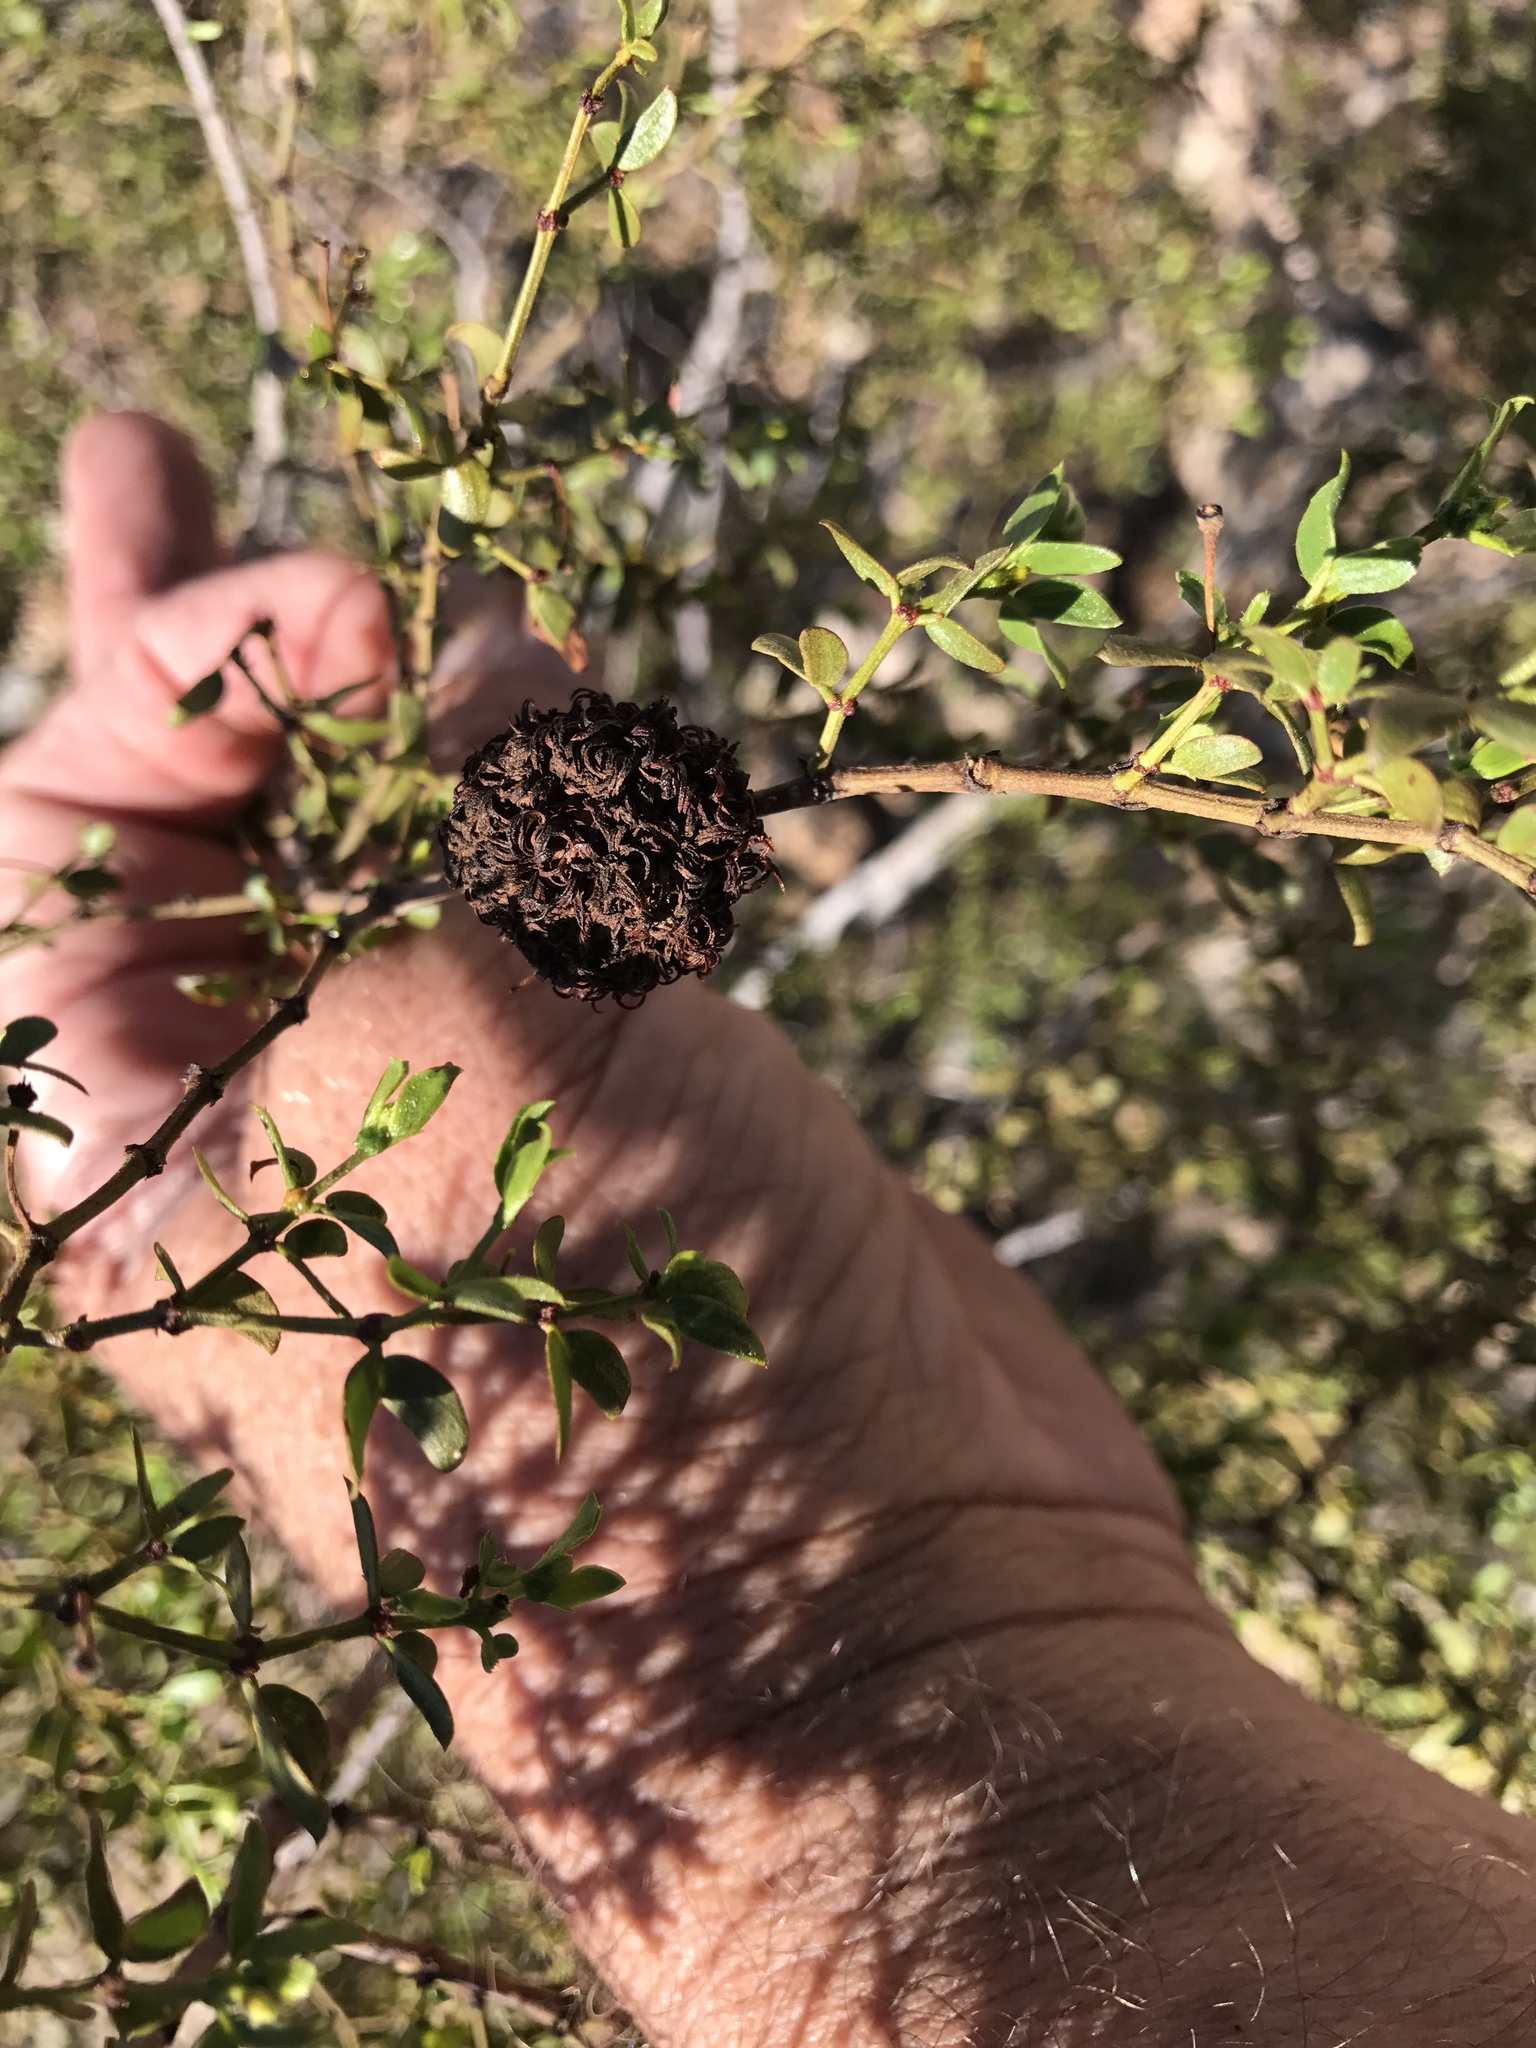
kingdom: Animalia
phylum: Arthropoda
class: Insecta
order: Diptera
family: Cecidomyiidae
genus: Asphondylia
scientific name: Asphondylia auripila
